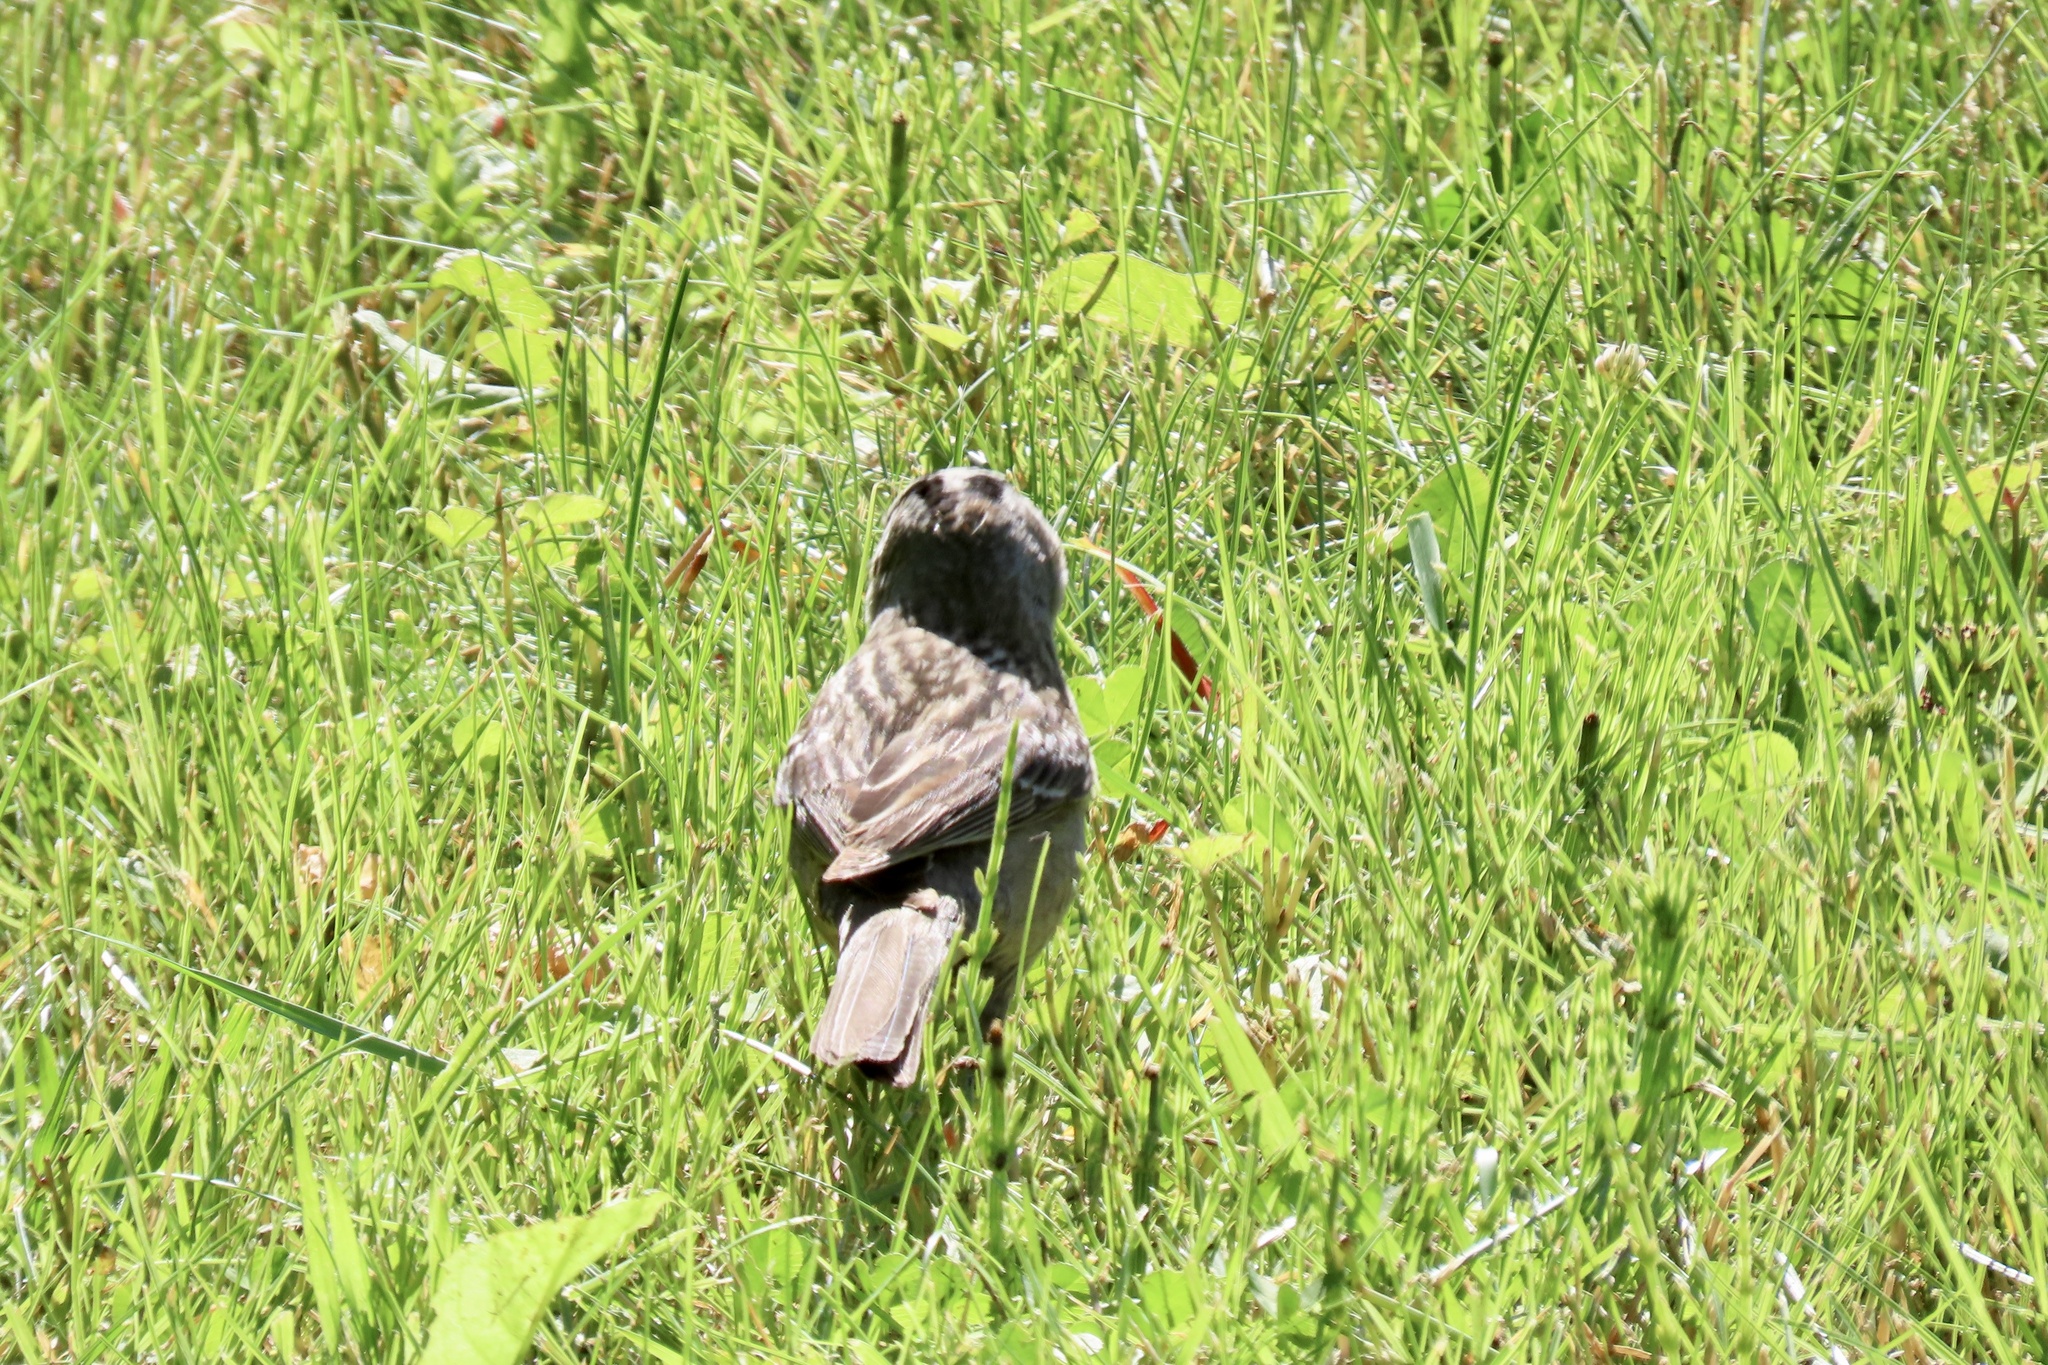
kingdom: Animalia
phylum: Chordata
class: Aves
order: Passeriformes
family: Passerellidae
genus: Zonotrichia
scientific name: Zonotrichia leucophrys
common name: White-crowned sparrow
